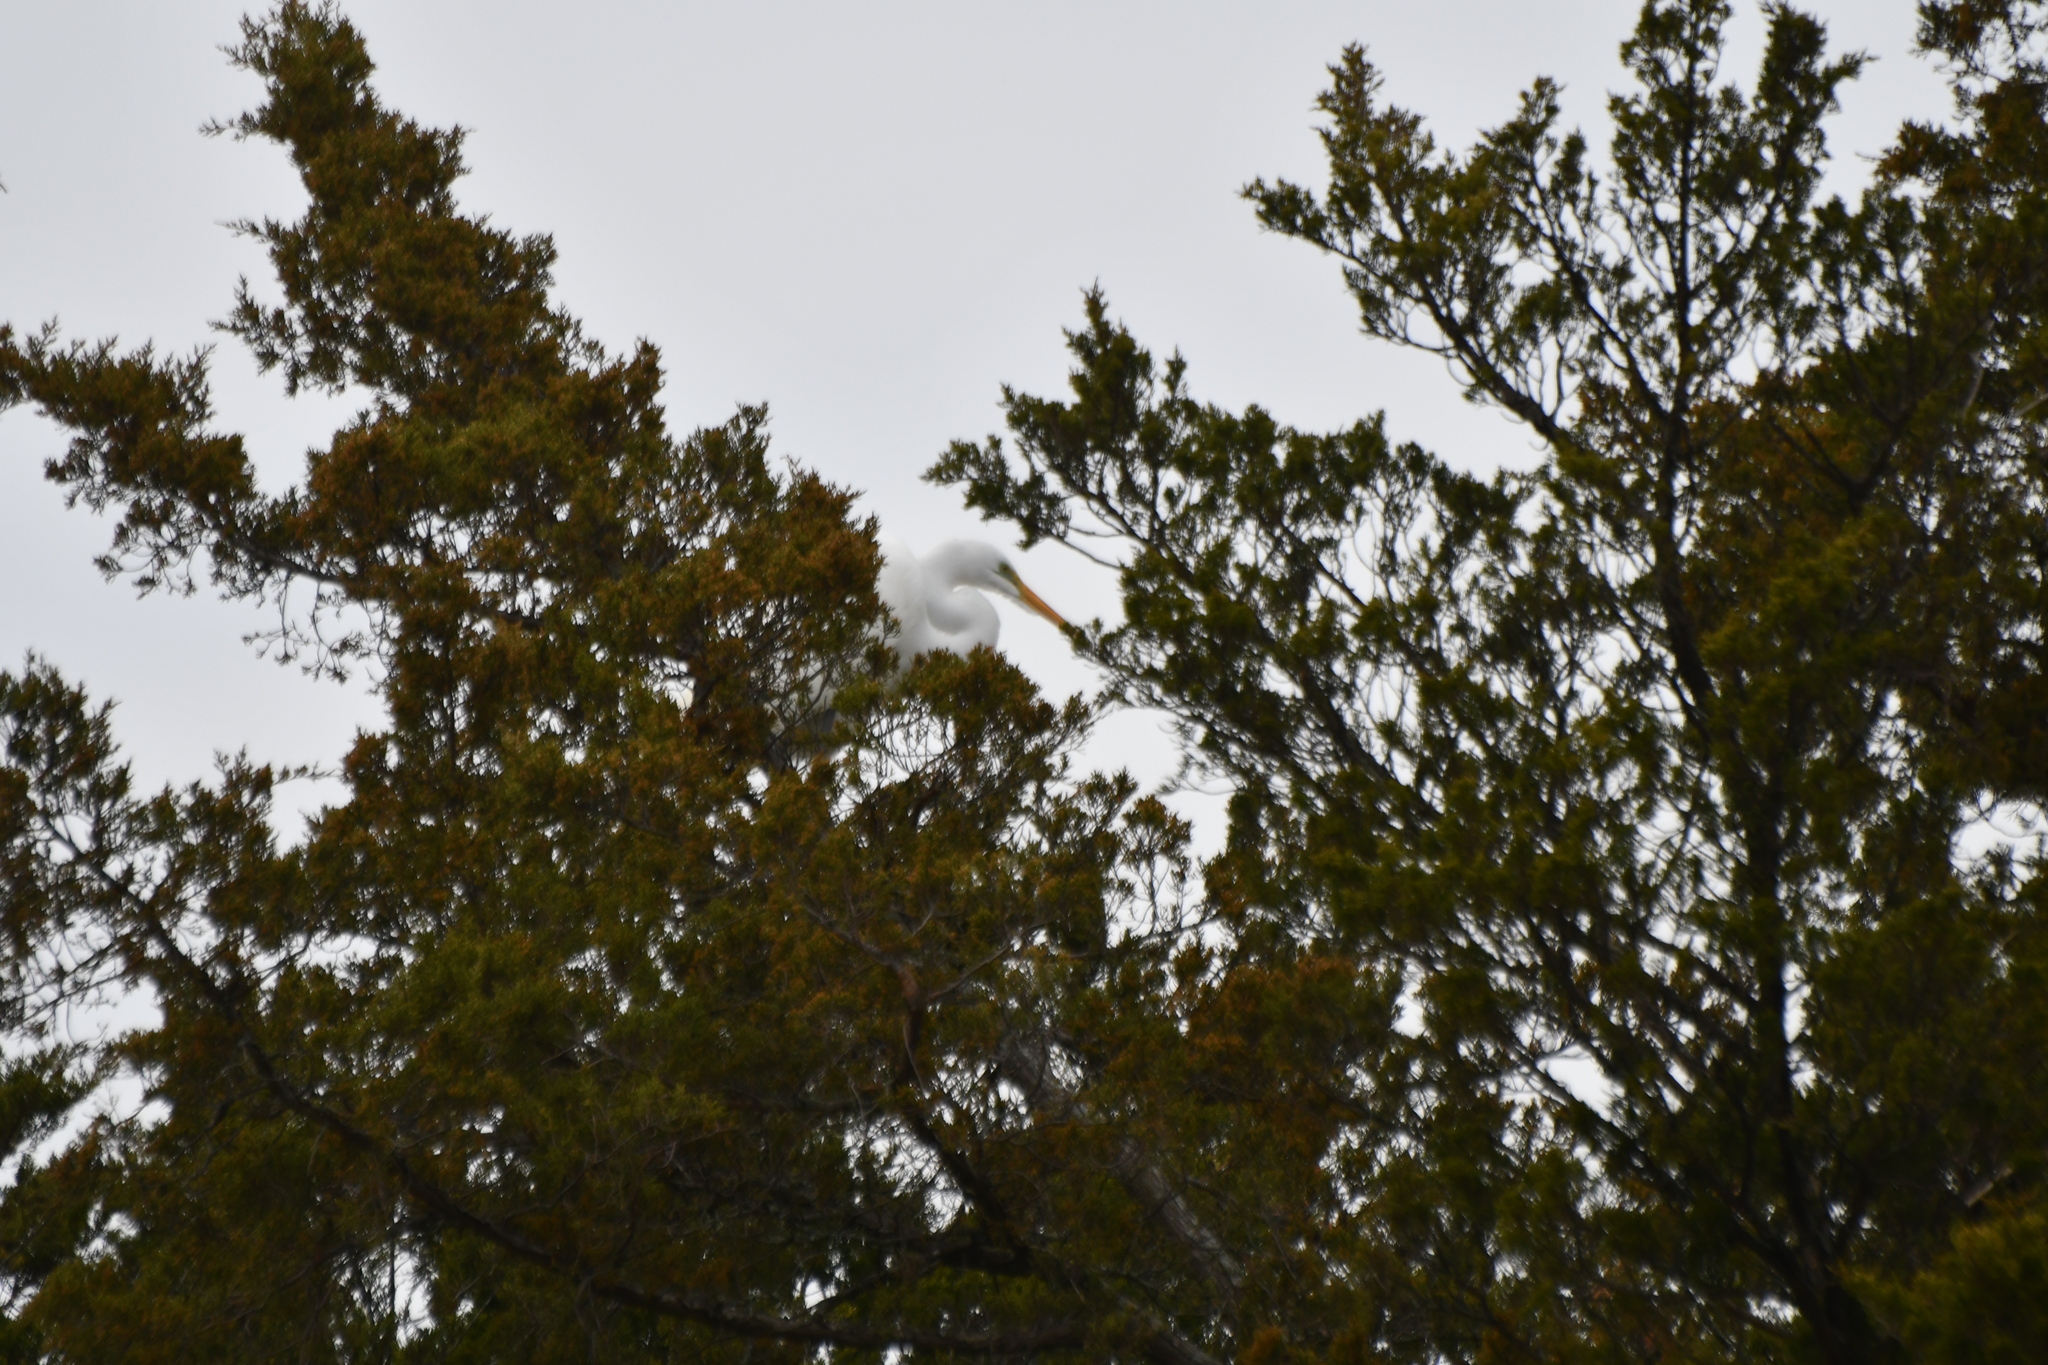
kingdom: Animalia
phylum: Chordata
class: Aves
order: Pelecaniformes
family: Ardeidae
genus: Ardea
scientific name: Ardea alba
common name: Great egret
